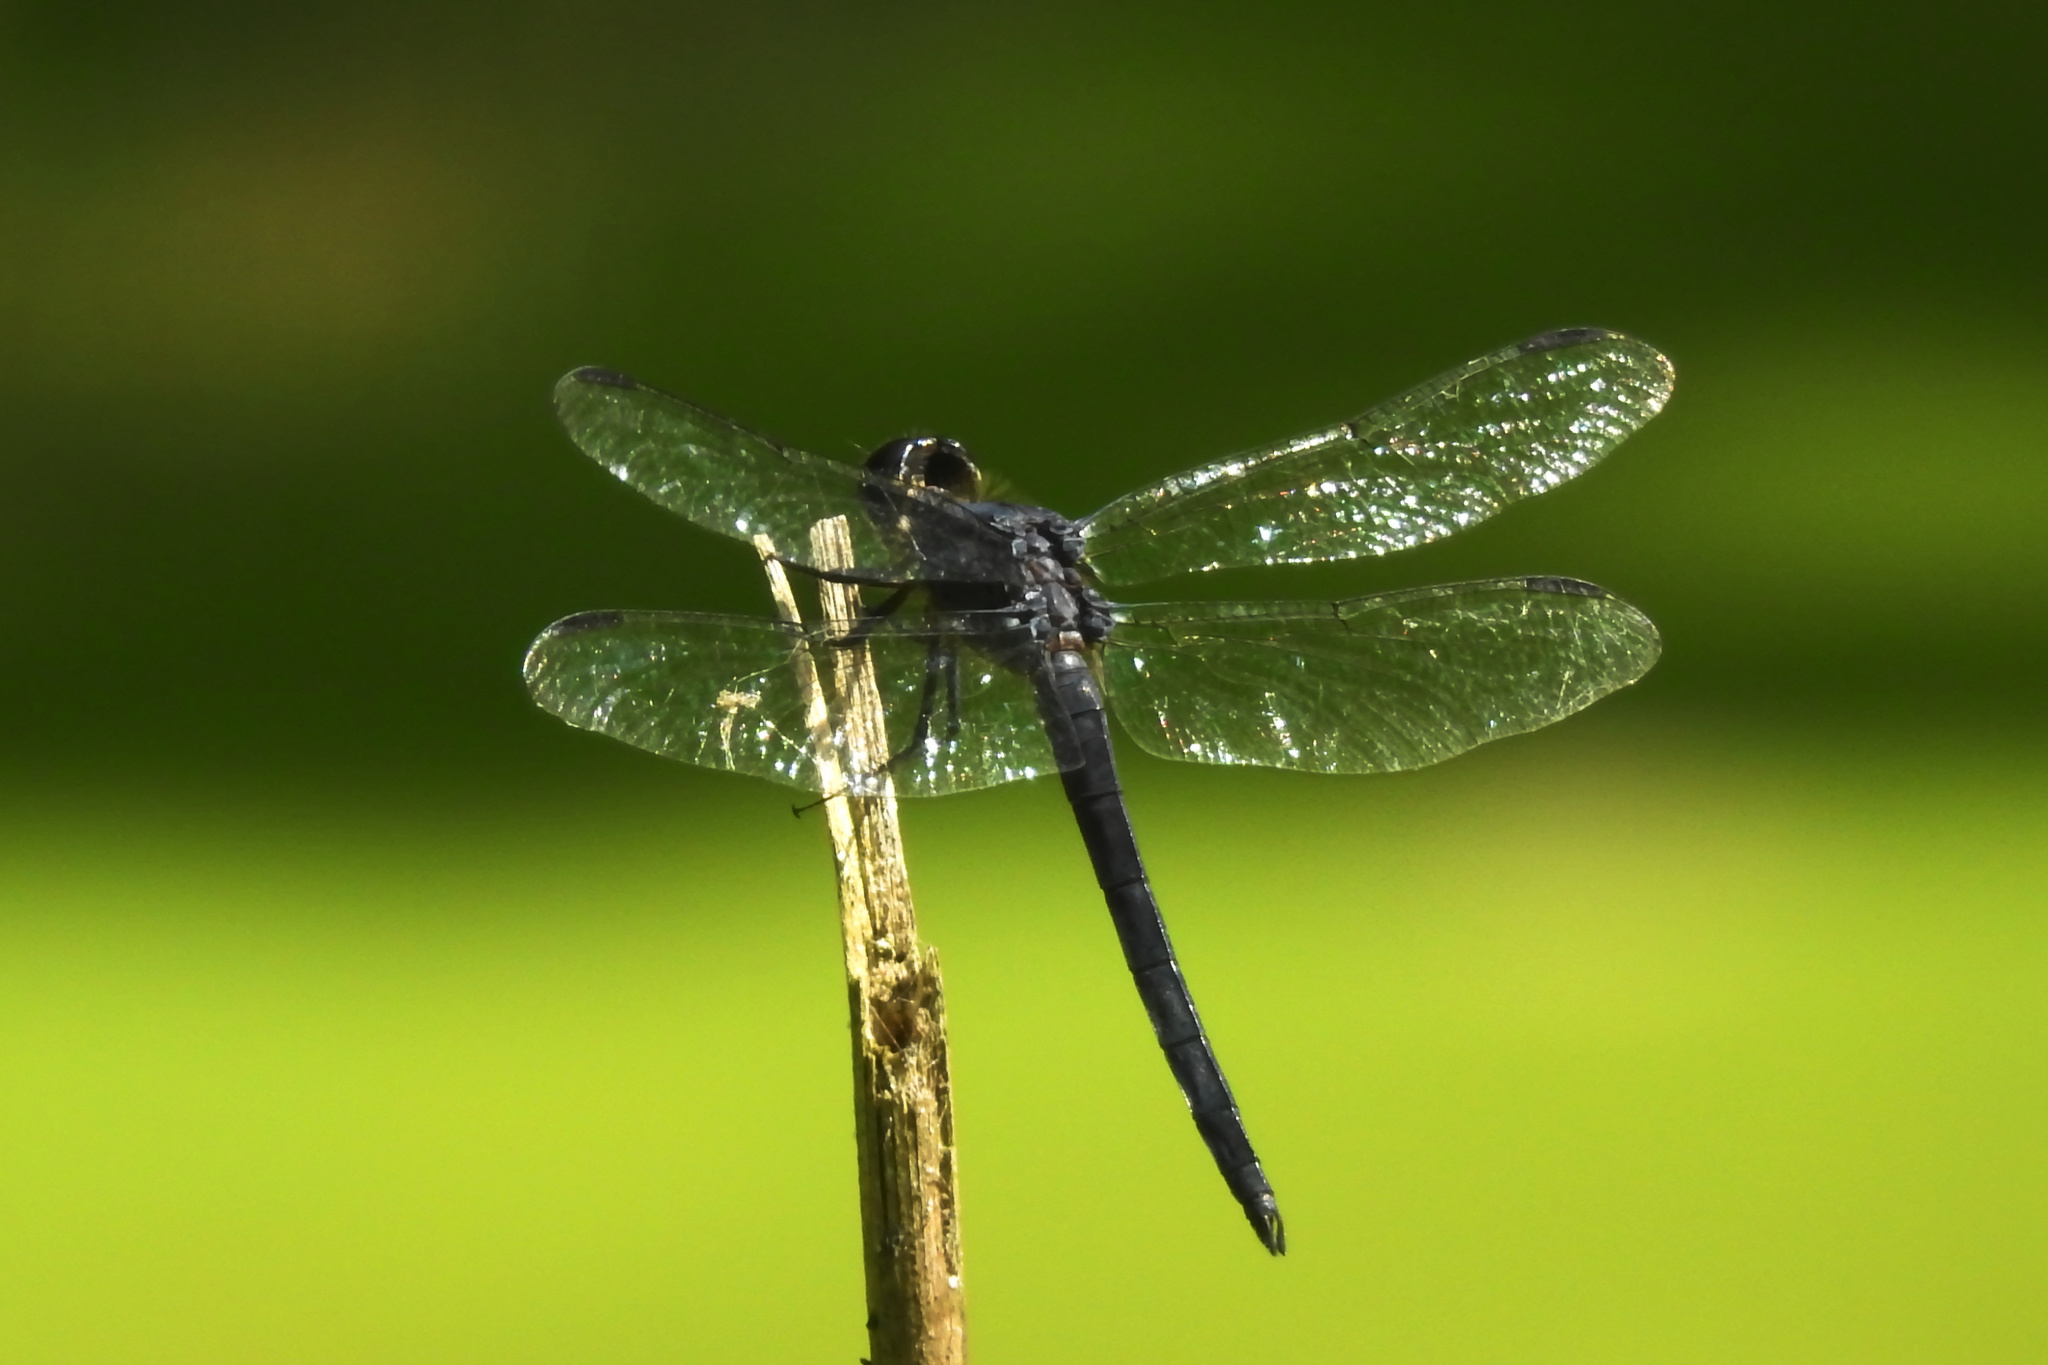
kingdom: Animalia
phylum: Arthropoda
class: Insecta
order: Odonata
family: Libellulidae
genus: Libellula
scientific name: Libellula incesta
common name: Slaty skimmer
